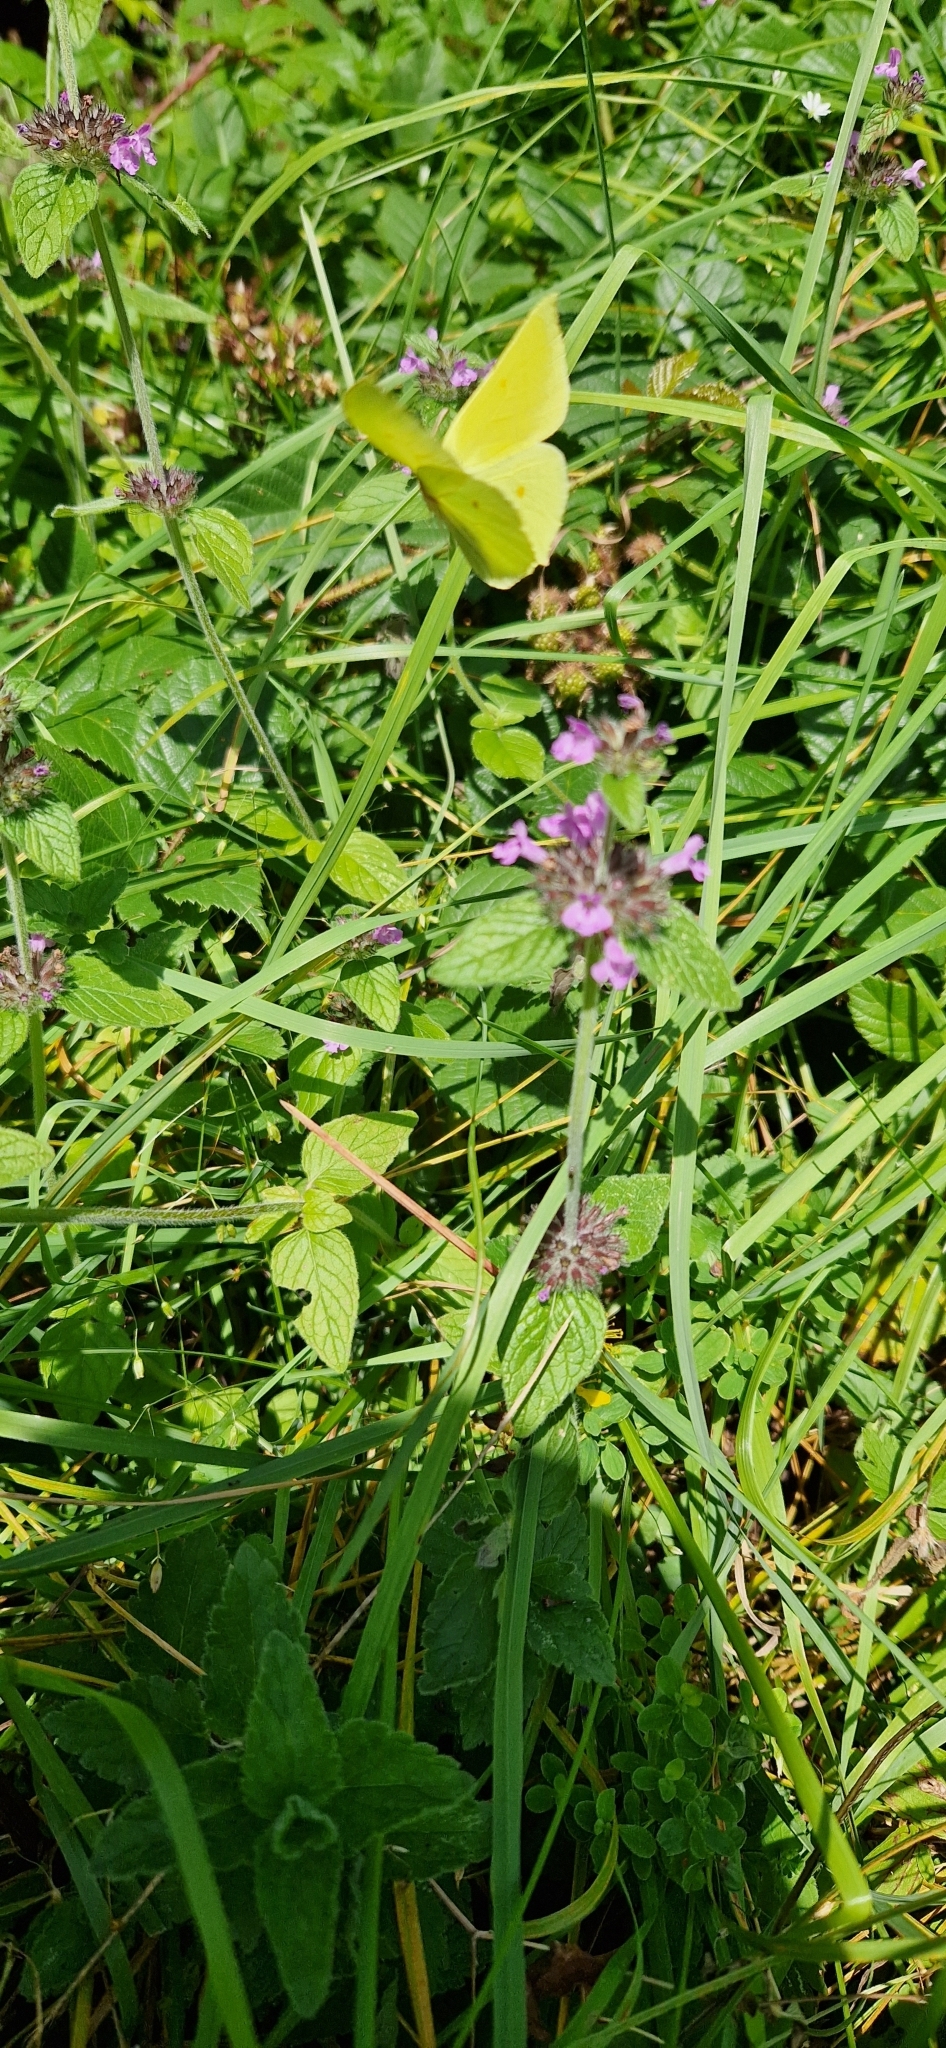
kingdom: Animalia
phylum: Arthropoda
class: Insecta
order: Lepidoptera
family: Pieridae
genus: Gonepteryx
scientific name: Gonepteryx rhamni
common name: Brimstone
